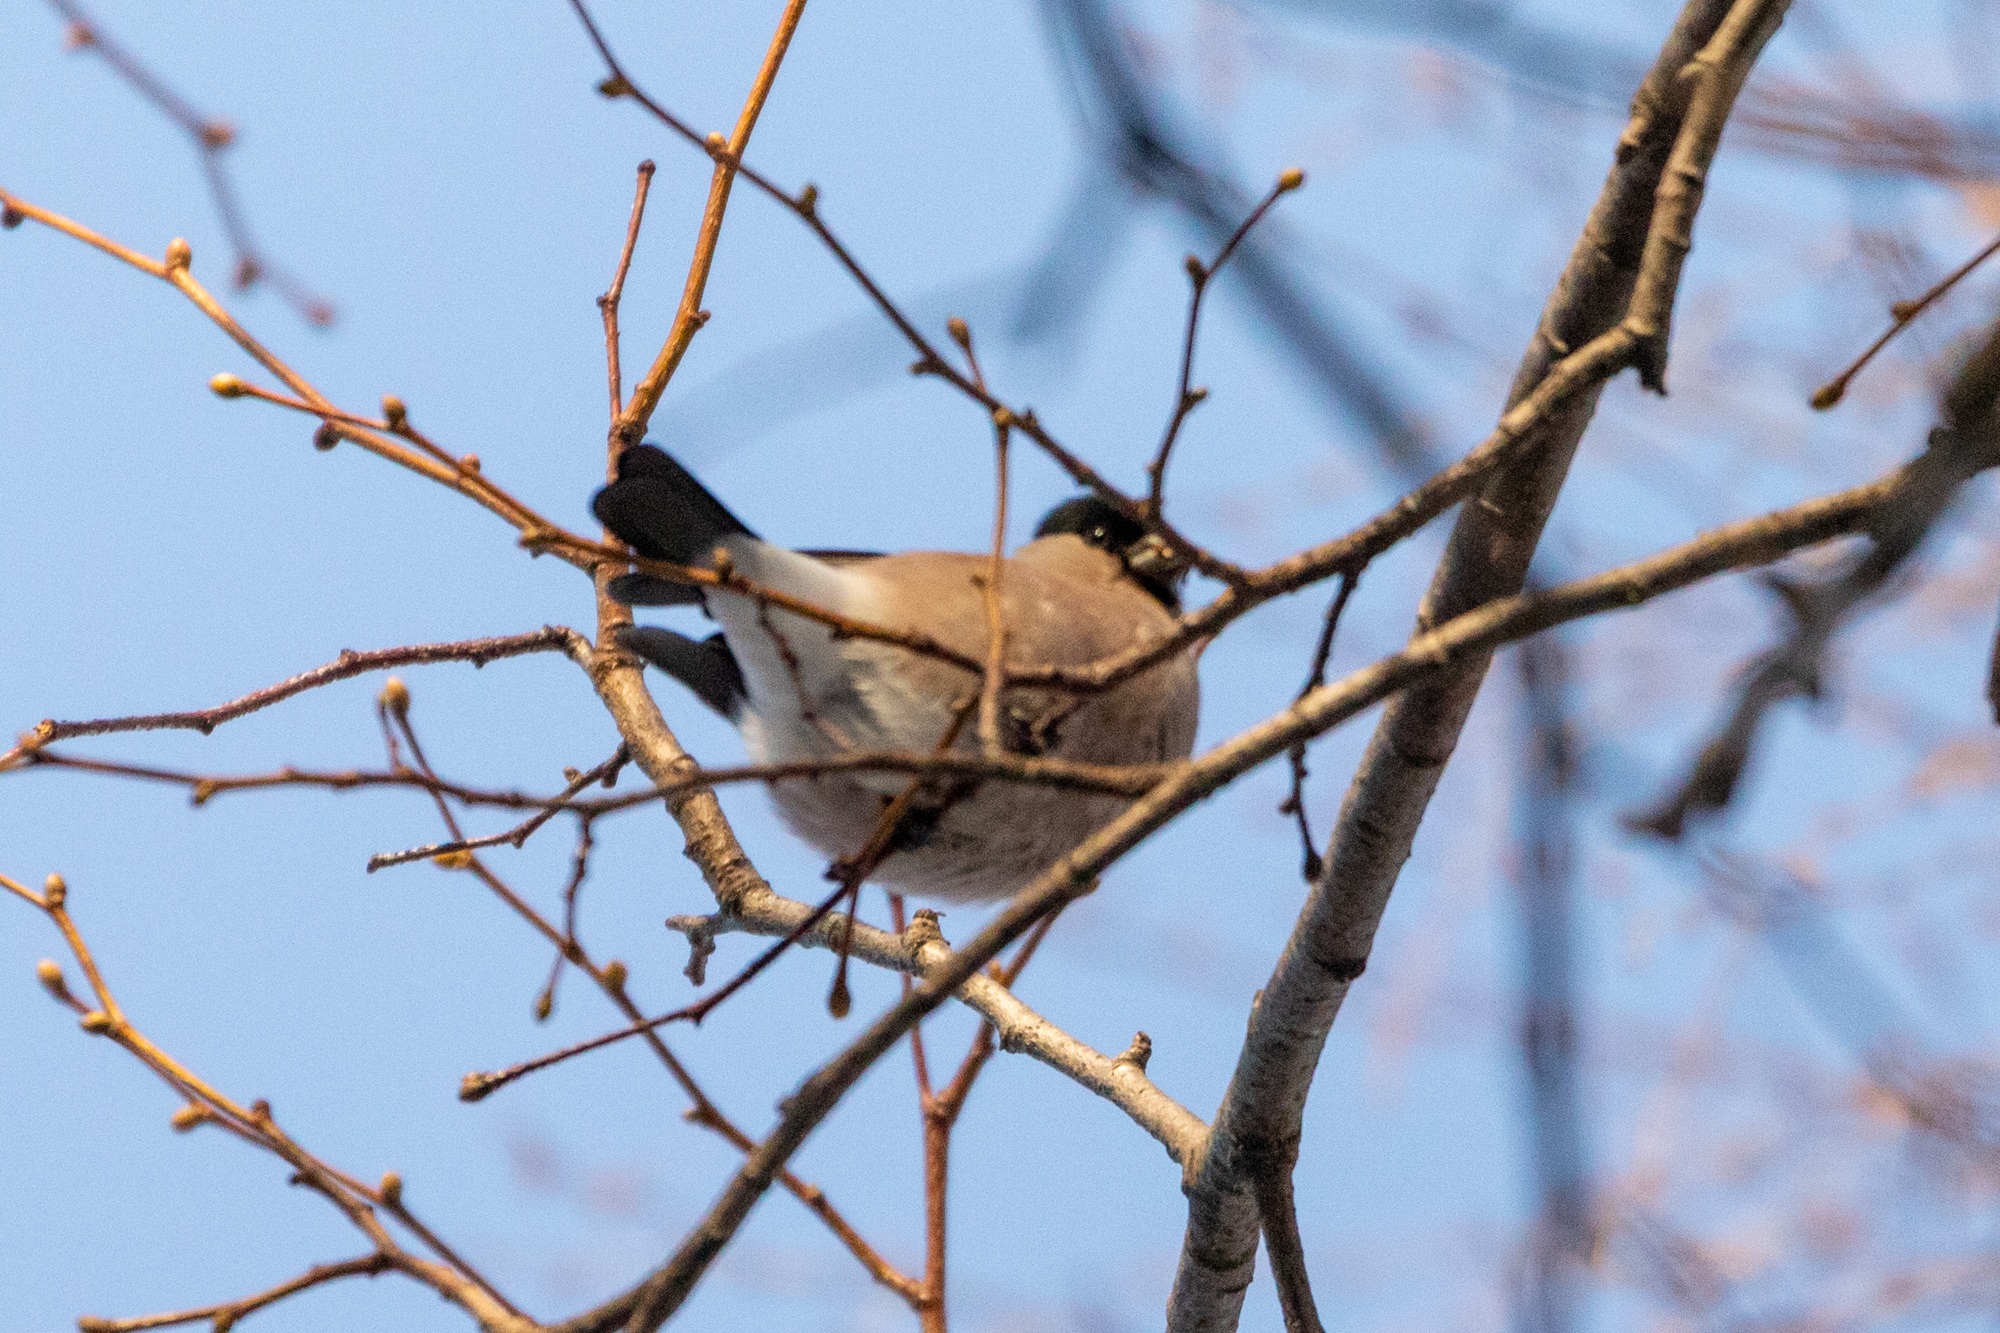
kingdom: Animalia
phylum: Chordata
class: Aves
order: Passeriformes
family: Fringillidae
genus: Pyrrhula
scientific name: Pyrrhula pyrrhula
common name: Eurasian bullfinch
